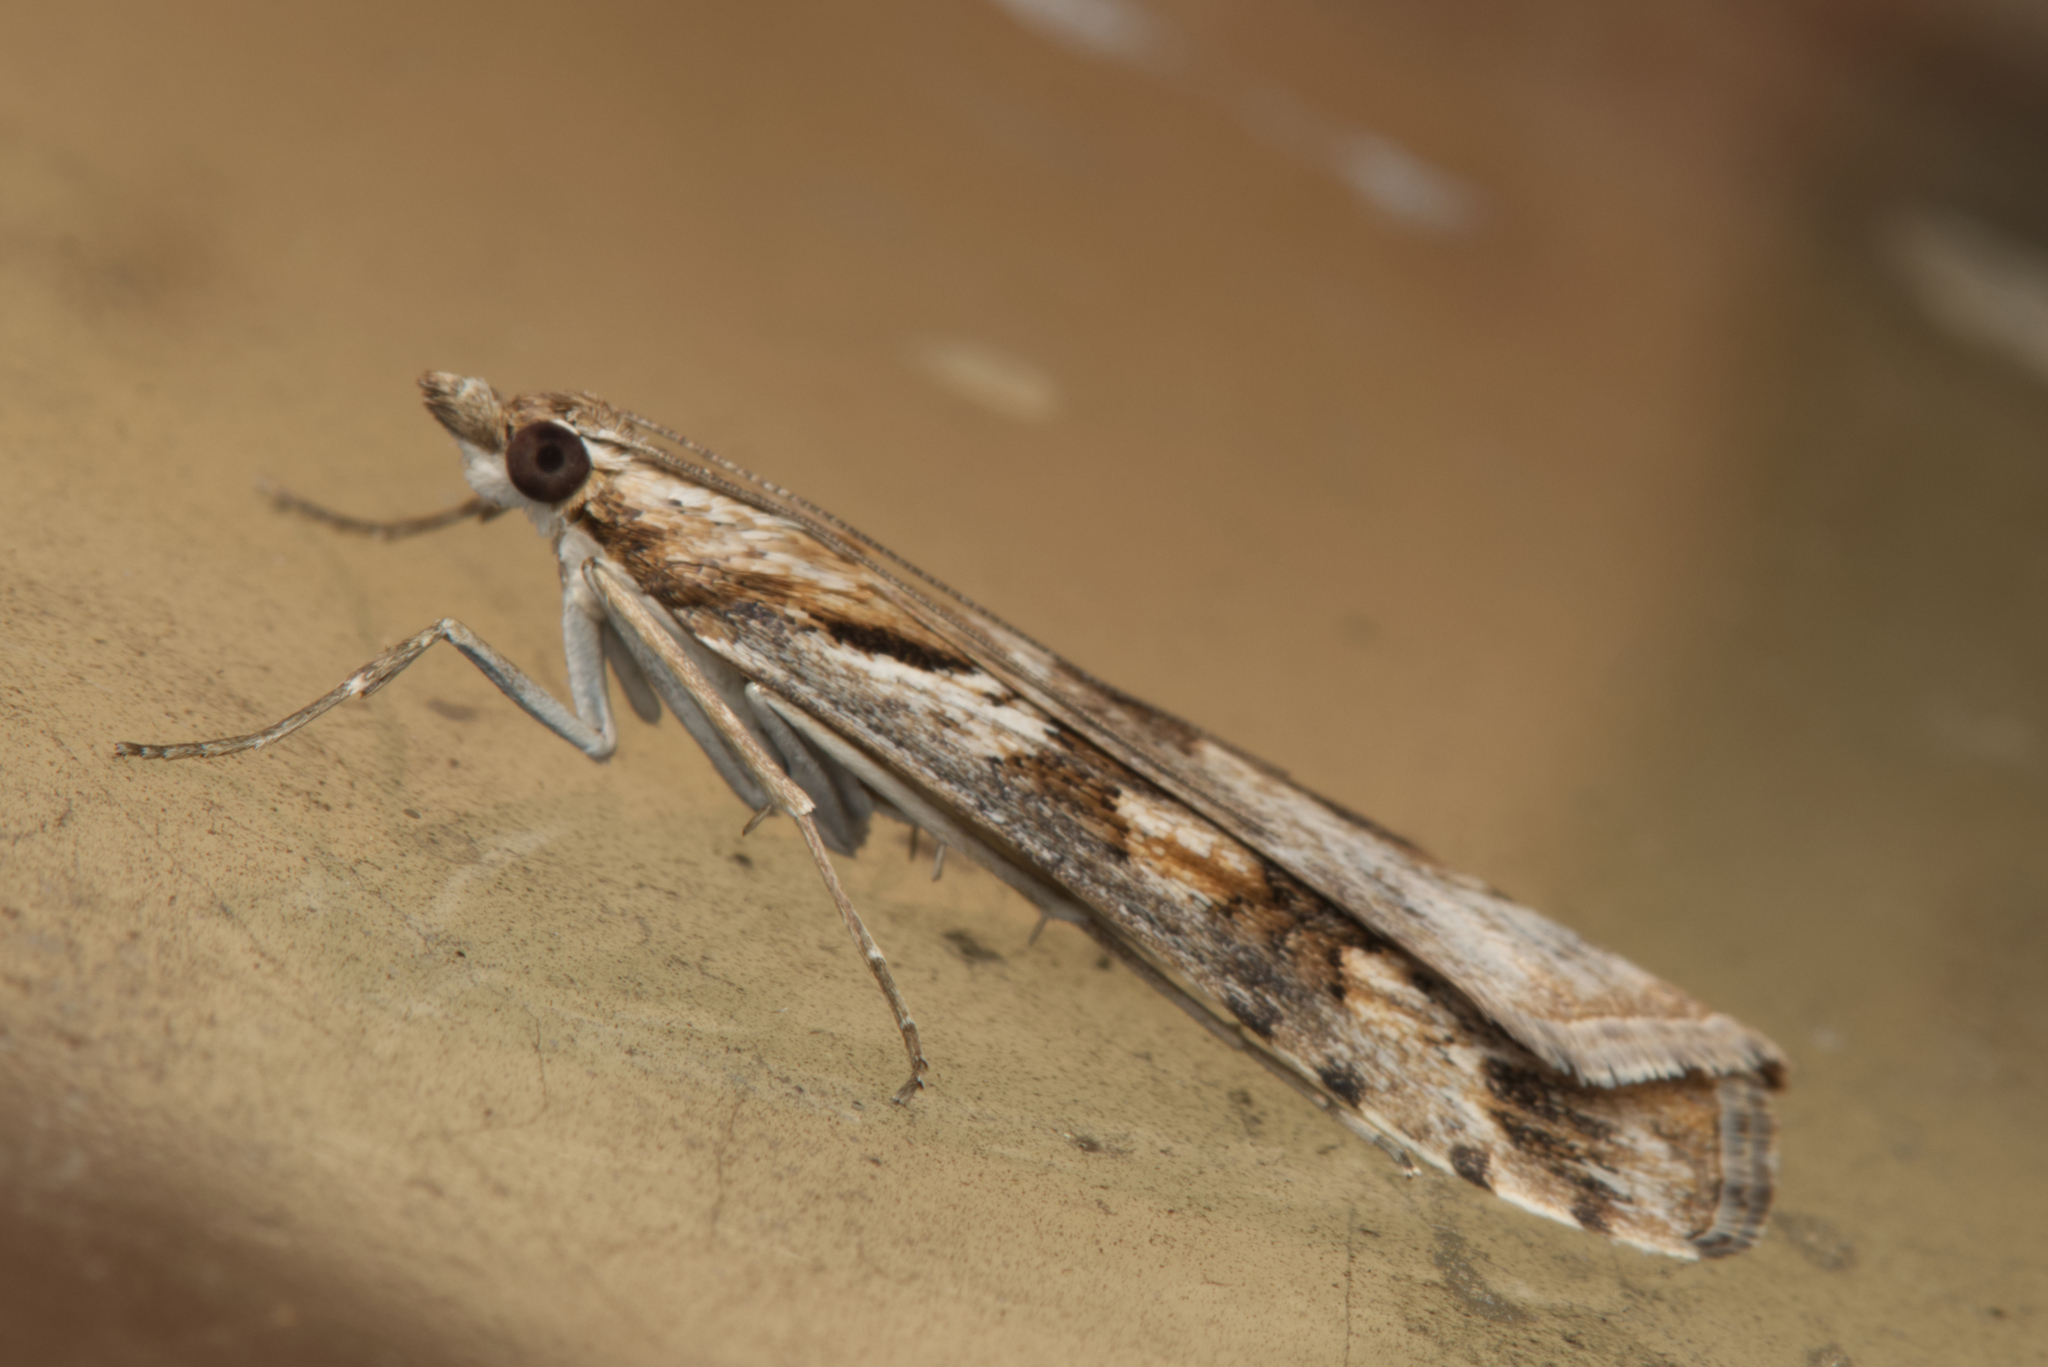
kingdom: Animalia
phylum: Arthropoda
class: Insecta
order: Lepidoptera
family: Crambidae
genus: Nomophila
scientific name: Nomophila corticalis
